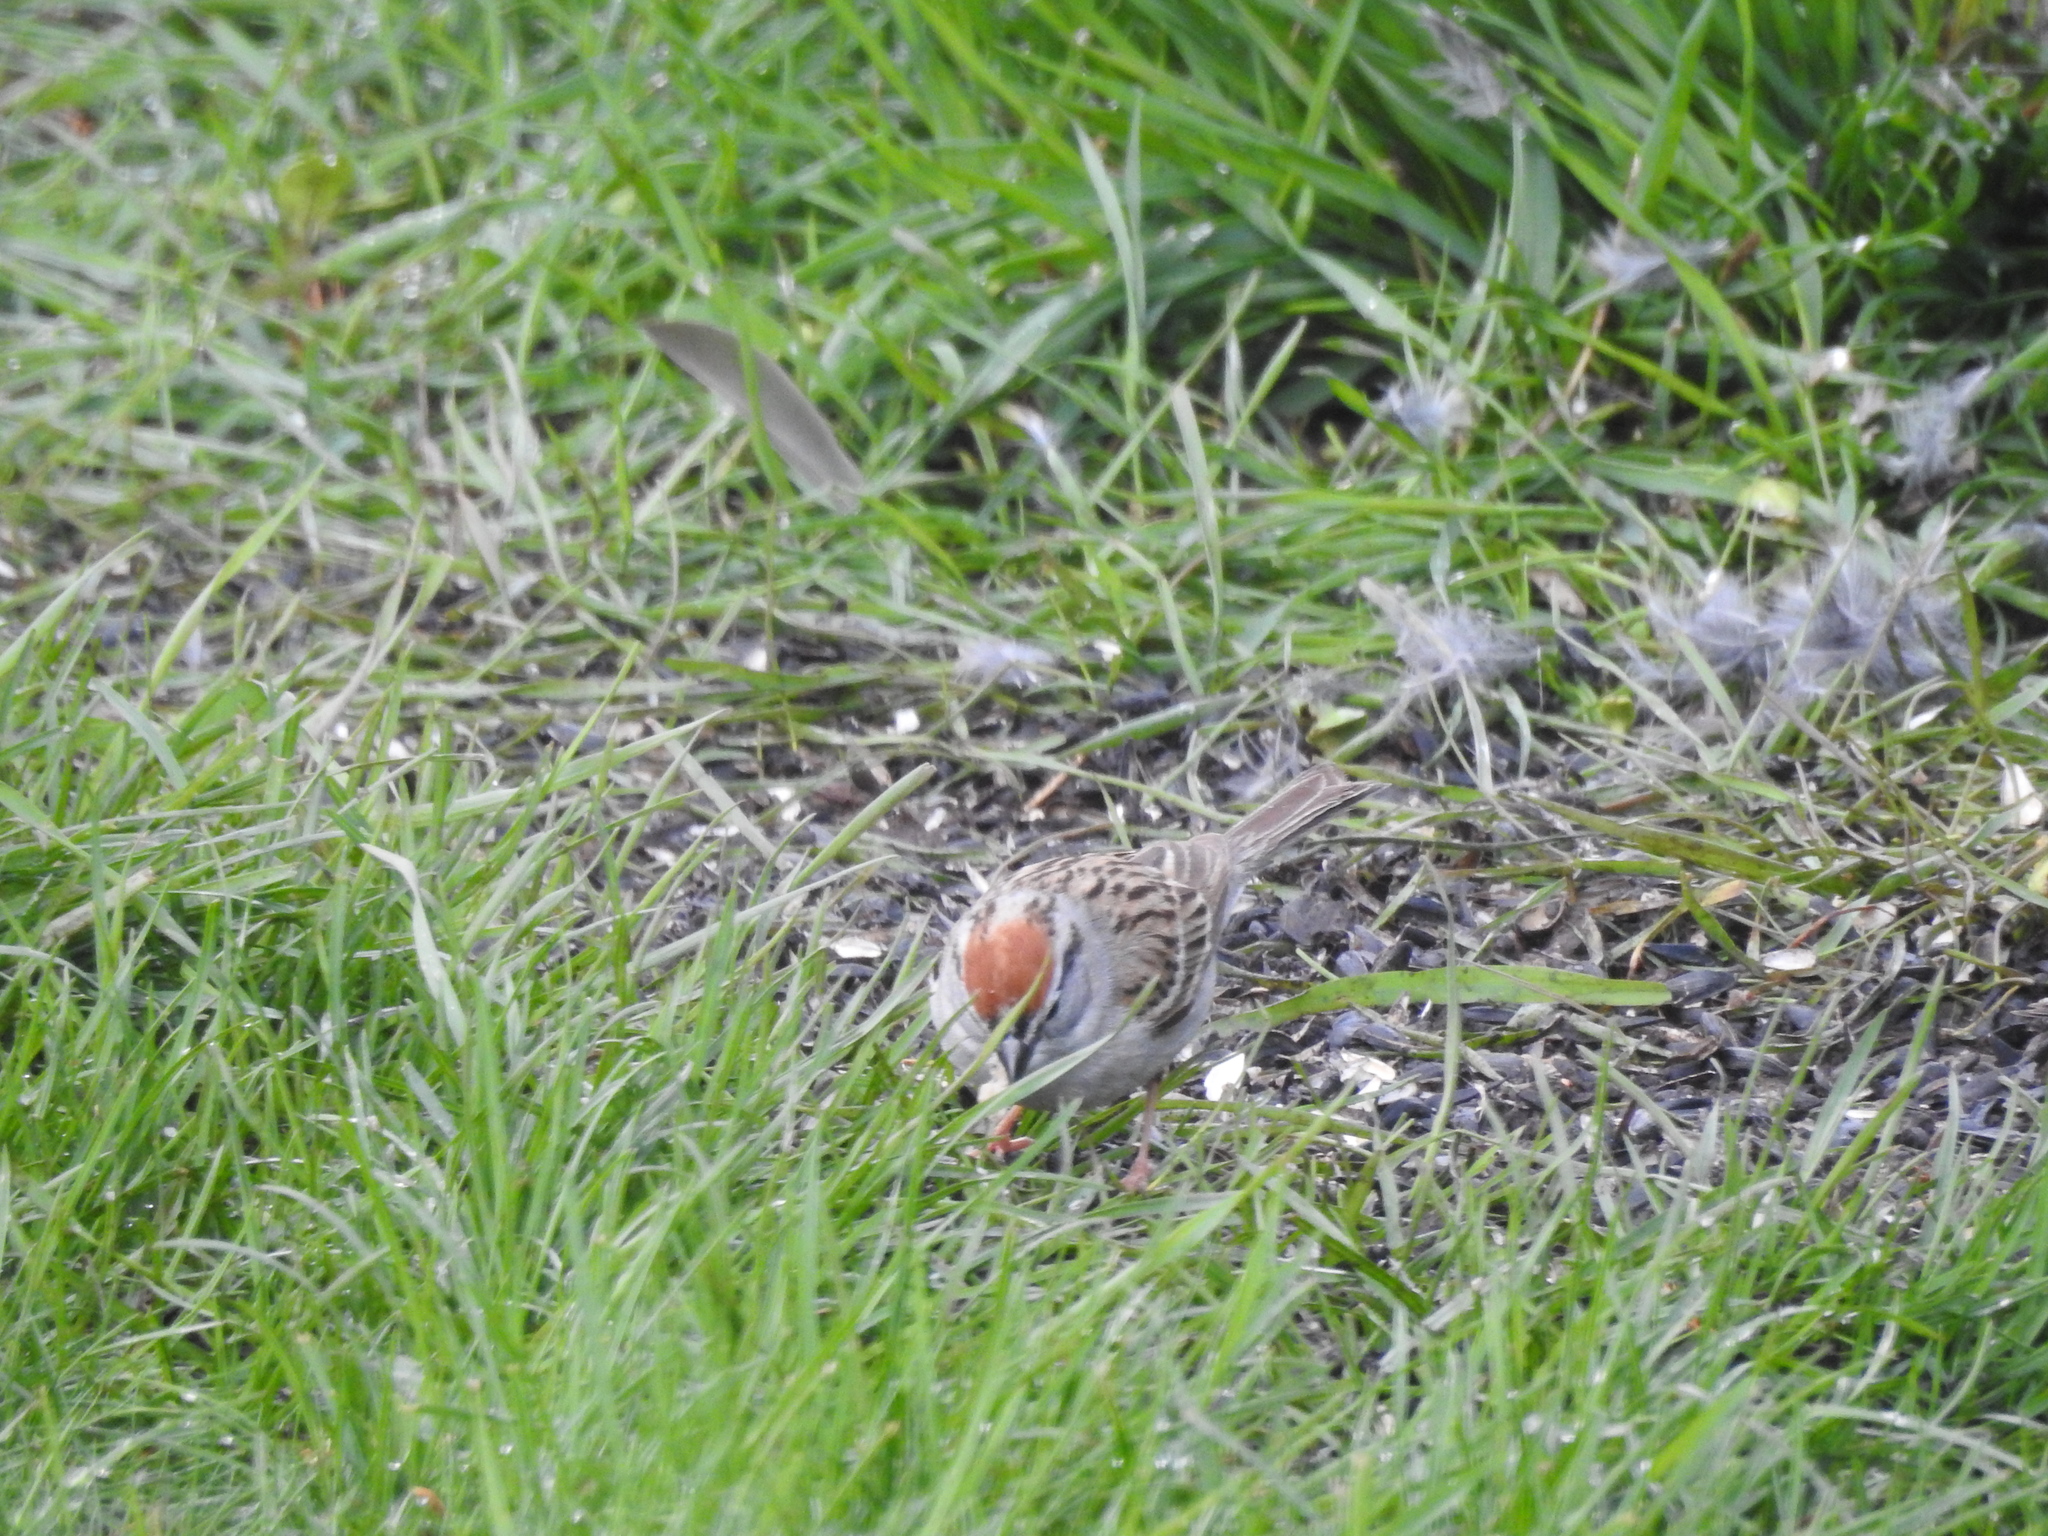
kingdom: Animalia
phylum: Chordata
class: Aves
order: Passeriformes
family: Passerellidae
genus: Spizella
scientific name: Spizella passerina
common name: Chipping sparrow
